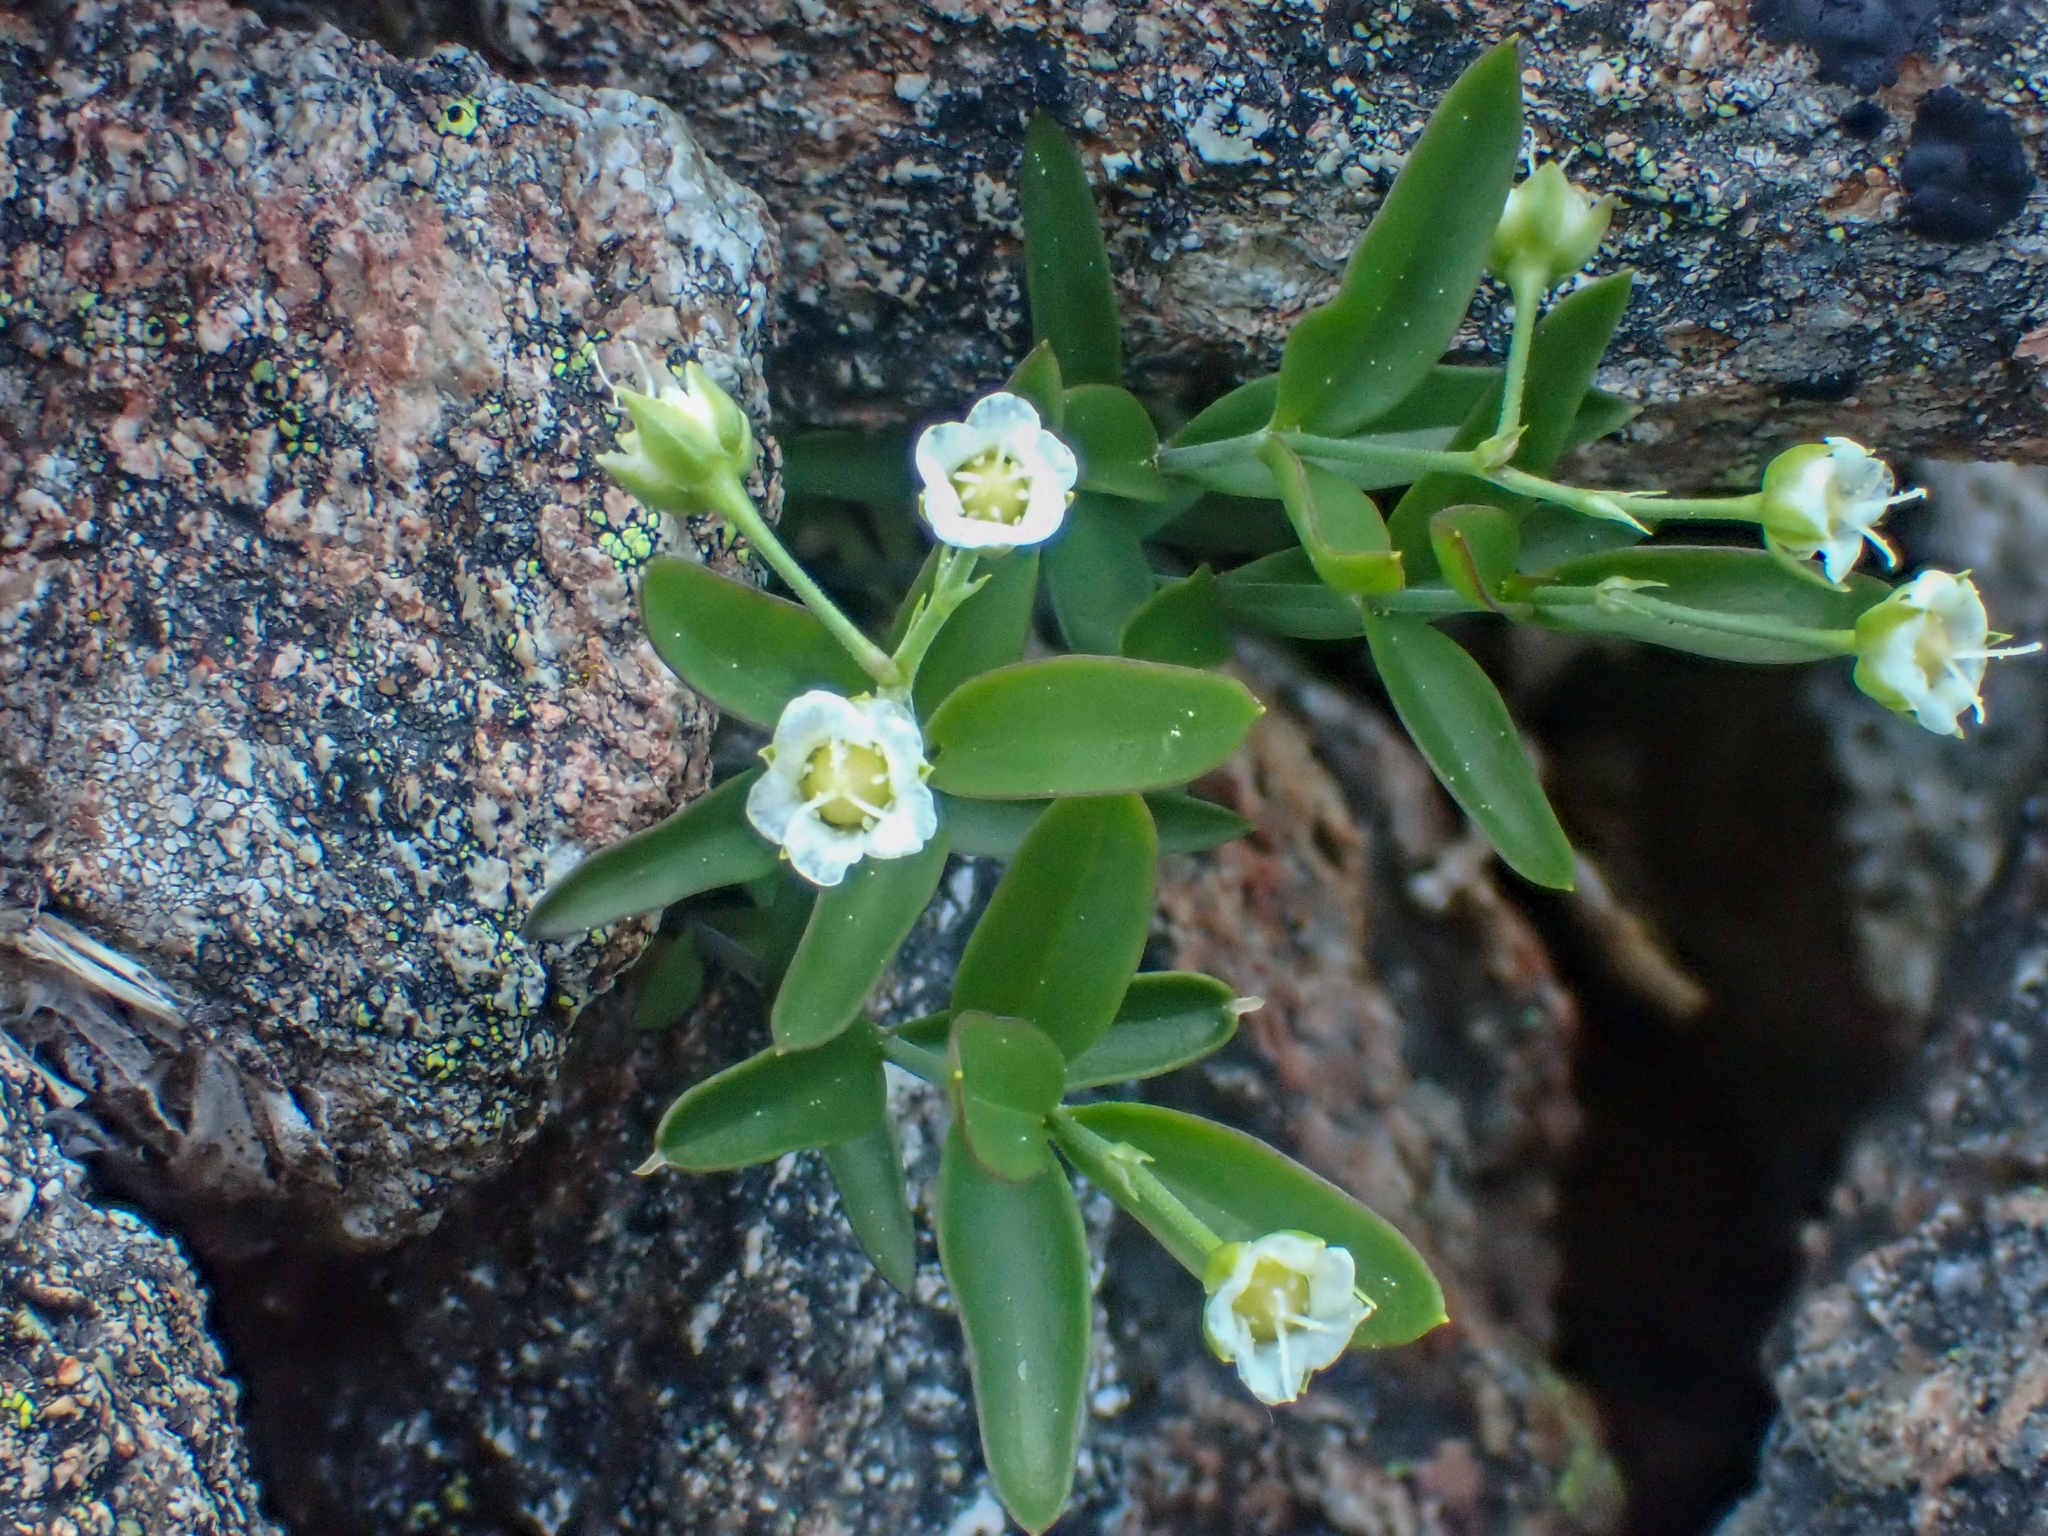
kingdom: Plantae
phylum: Tracheophyta
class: Magnoliopsida
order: Caryophyllales
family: Caryophyllaceae
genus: Moehringia
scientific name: Moehringia macrophylla
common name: Big-leaf sandwort
